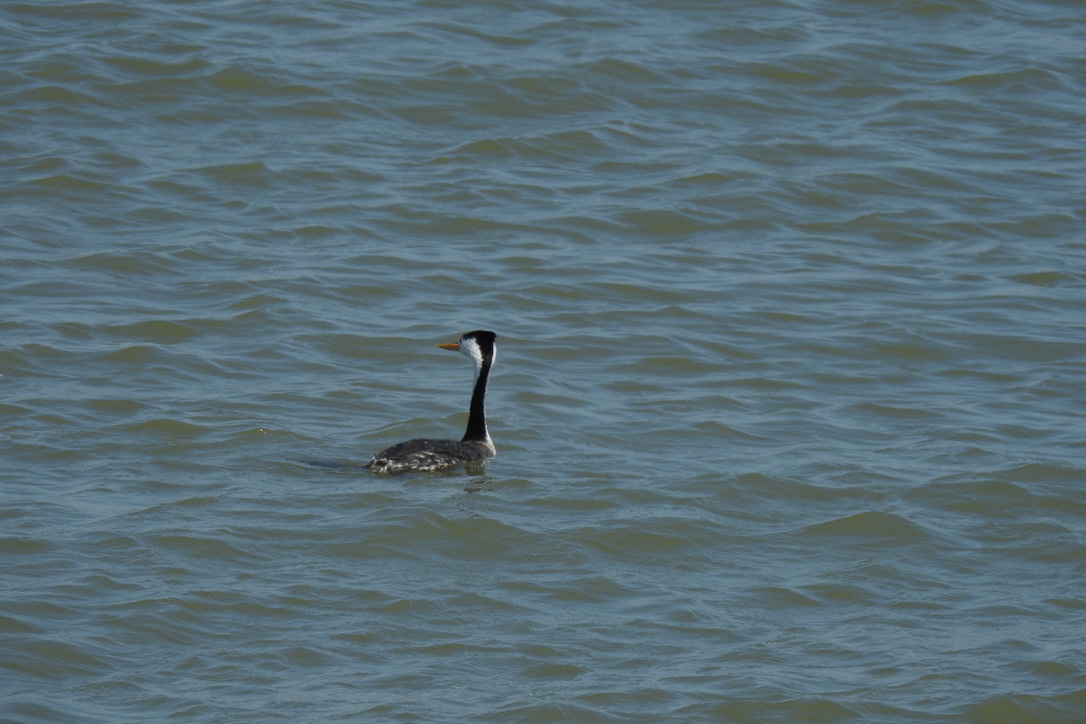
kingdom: Animalia
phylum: Chordata
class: Aves
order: Podicipediformes
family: Podicipedidae
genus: Aechmophorus
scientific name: Aechmophorus clarkii
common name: Clark's grebe
